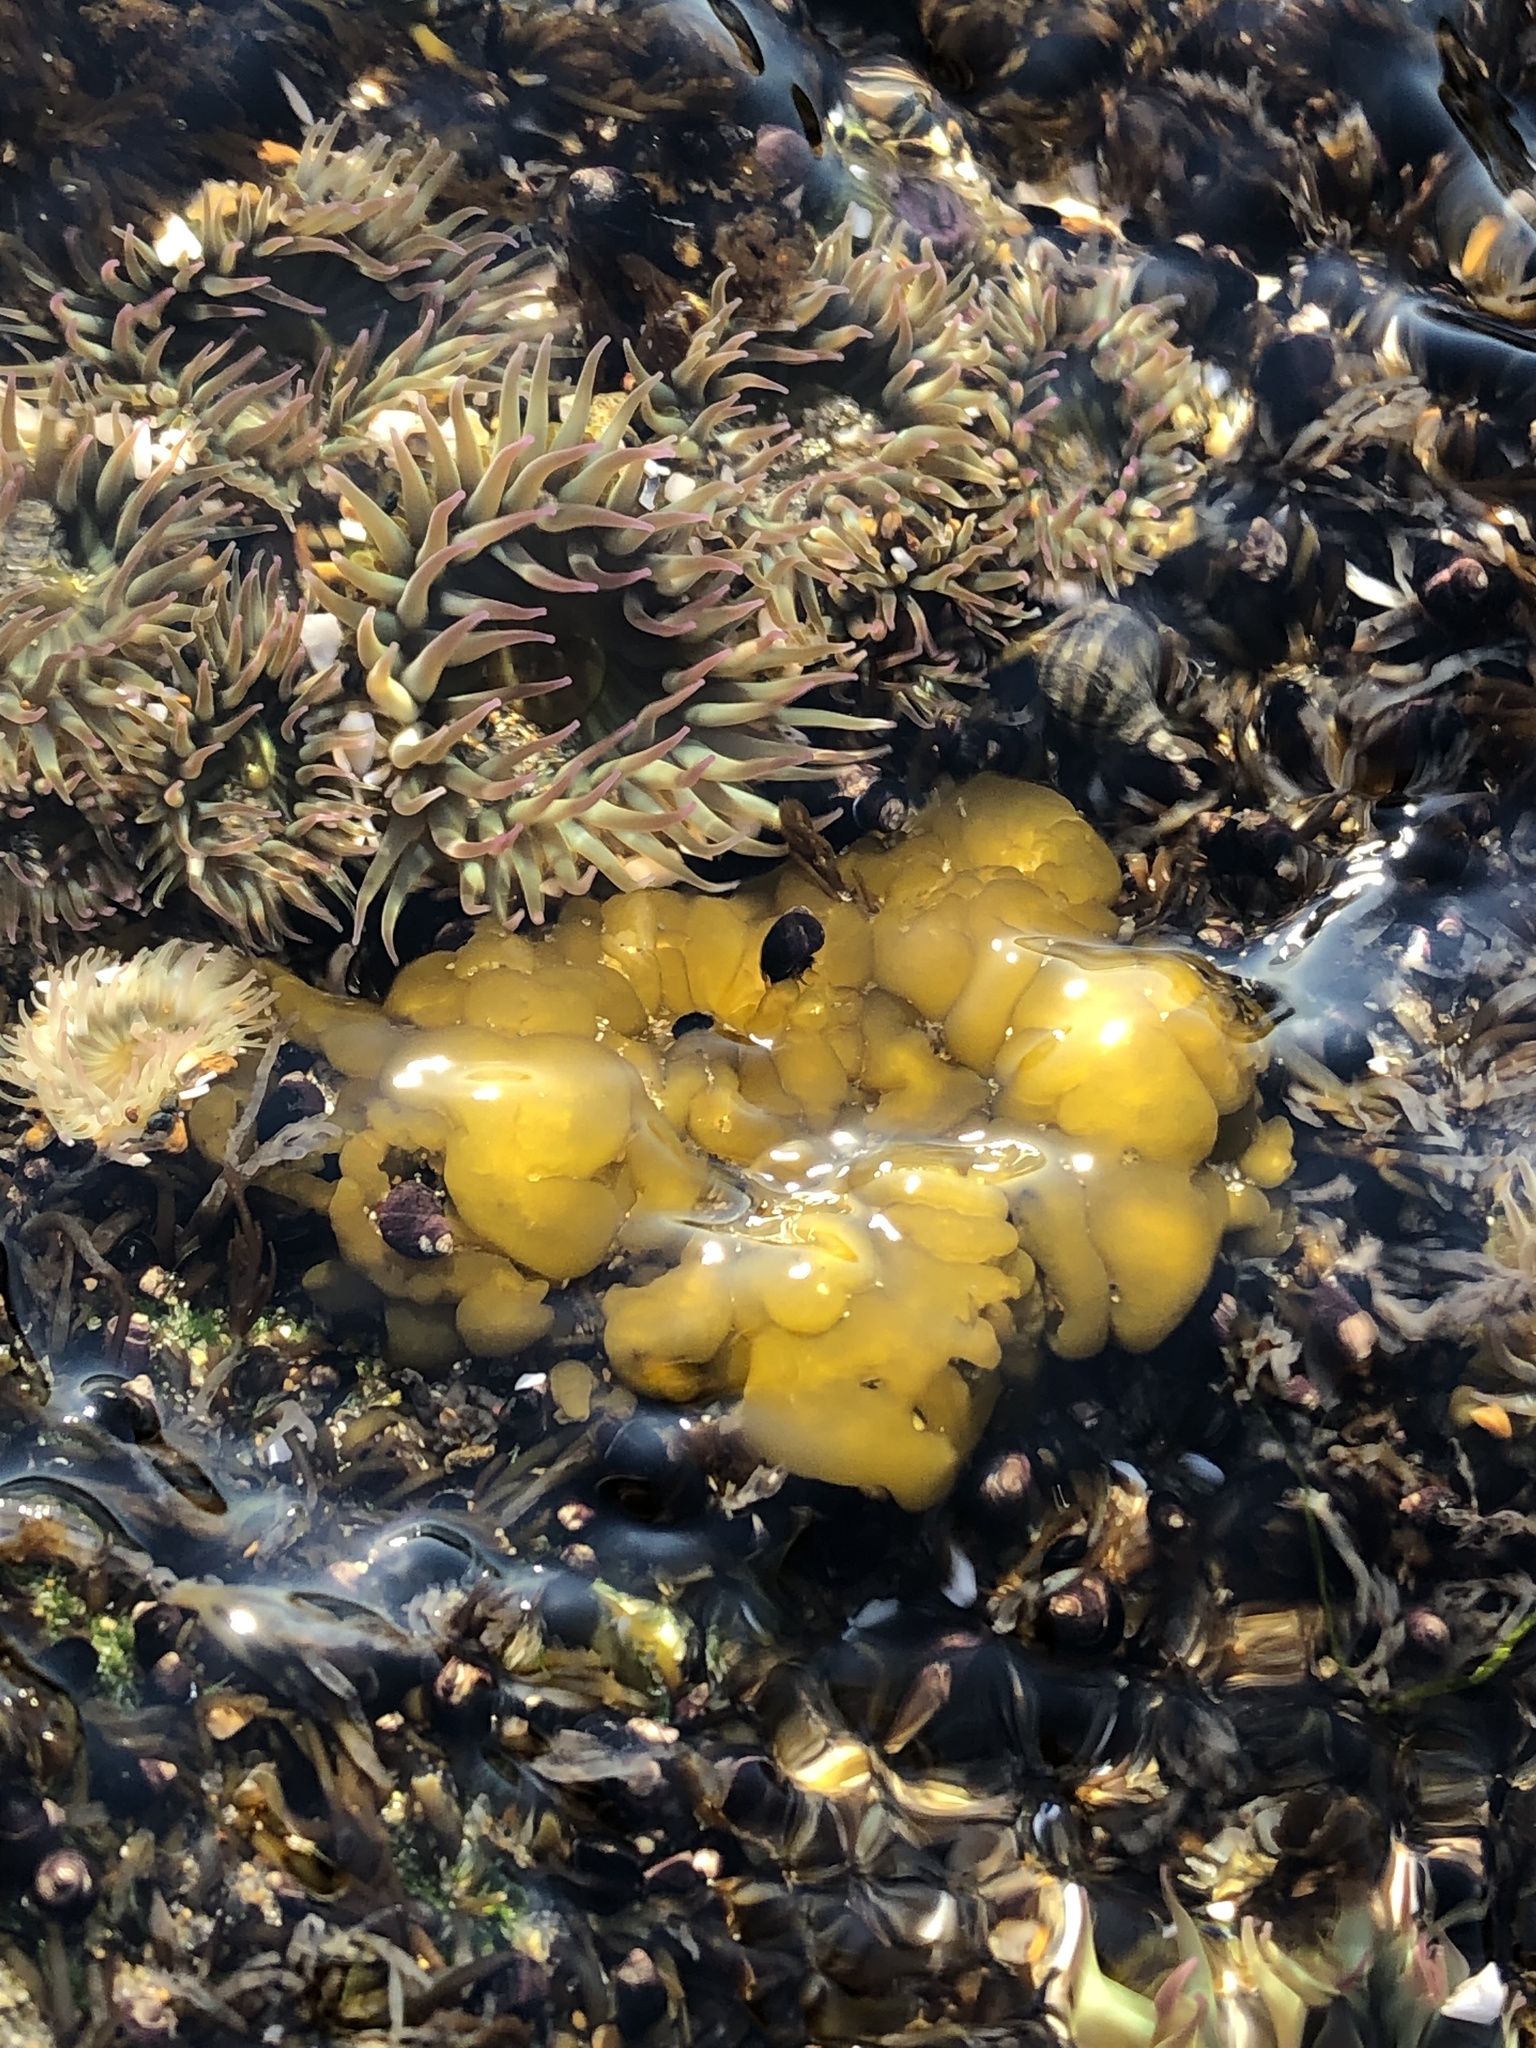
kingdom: Chromista
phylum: Ochrophyta
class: Phaeophyceae
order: Ectocarpales
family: Chordariaceae
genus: Leathesia
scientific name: Leathesia marina
